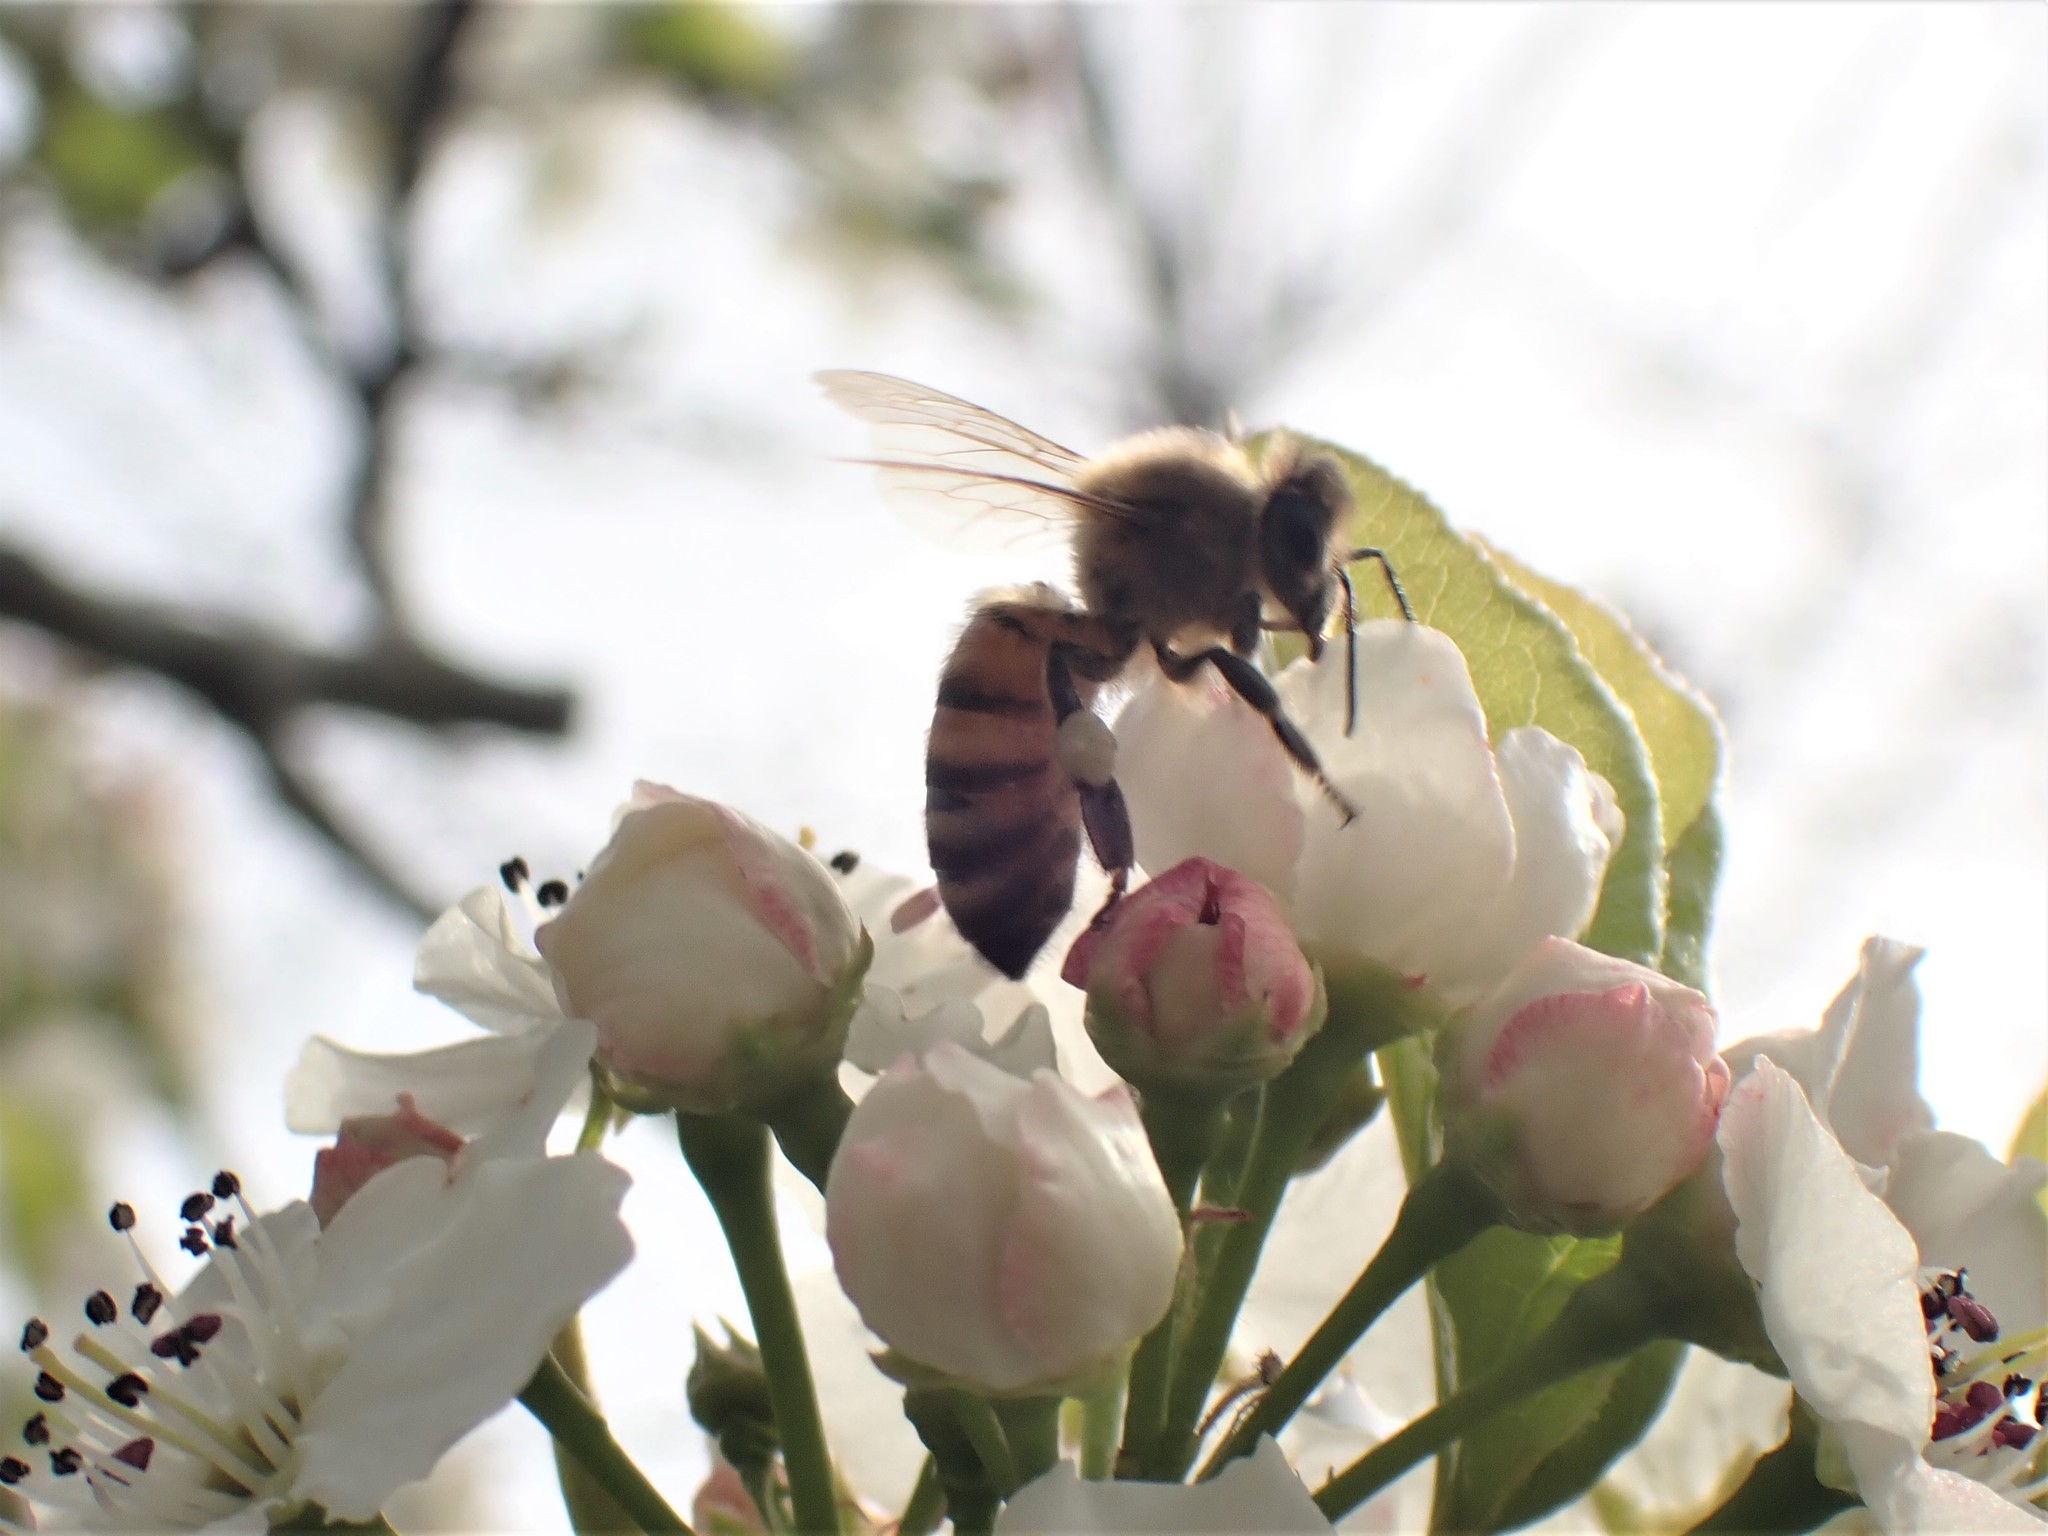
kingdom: Animalia
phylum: Arthropoda
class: Insecta
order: Hymenoptera
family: Apidae
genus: Apis
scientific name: Apis mellifera
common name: Honey bee
